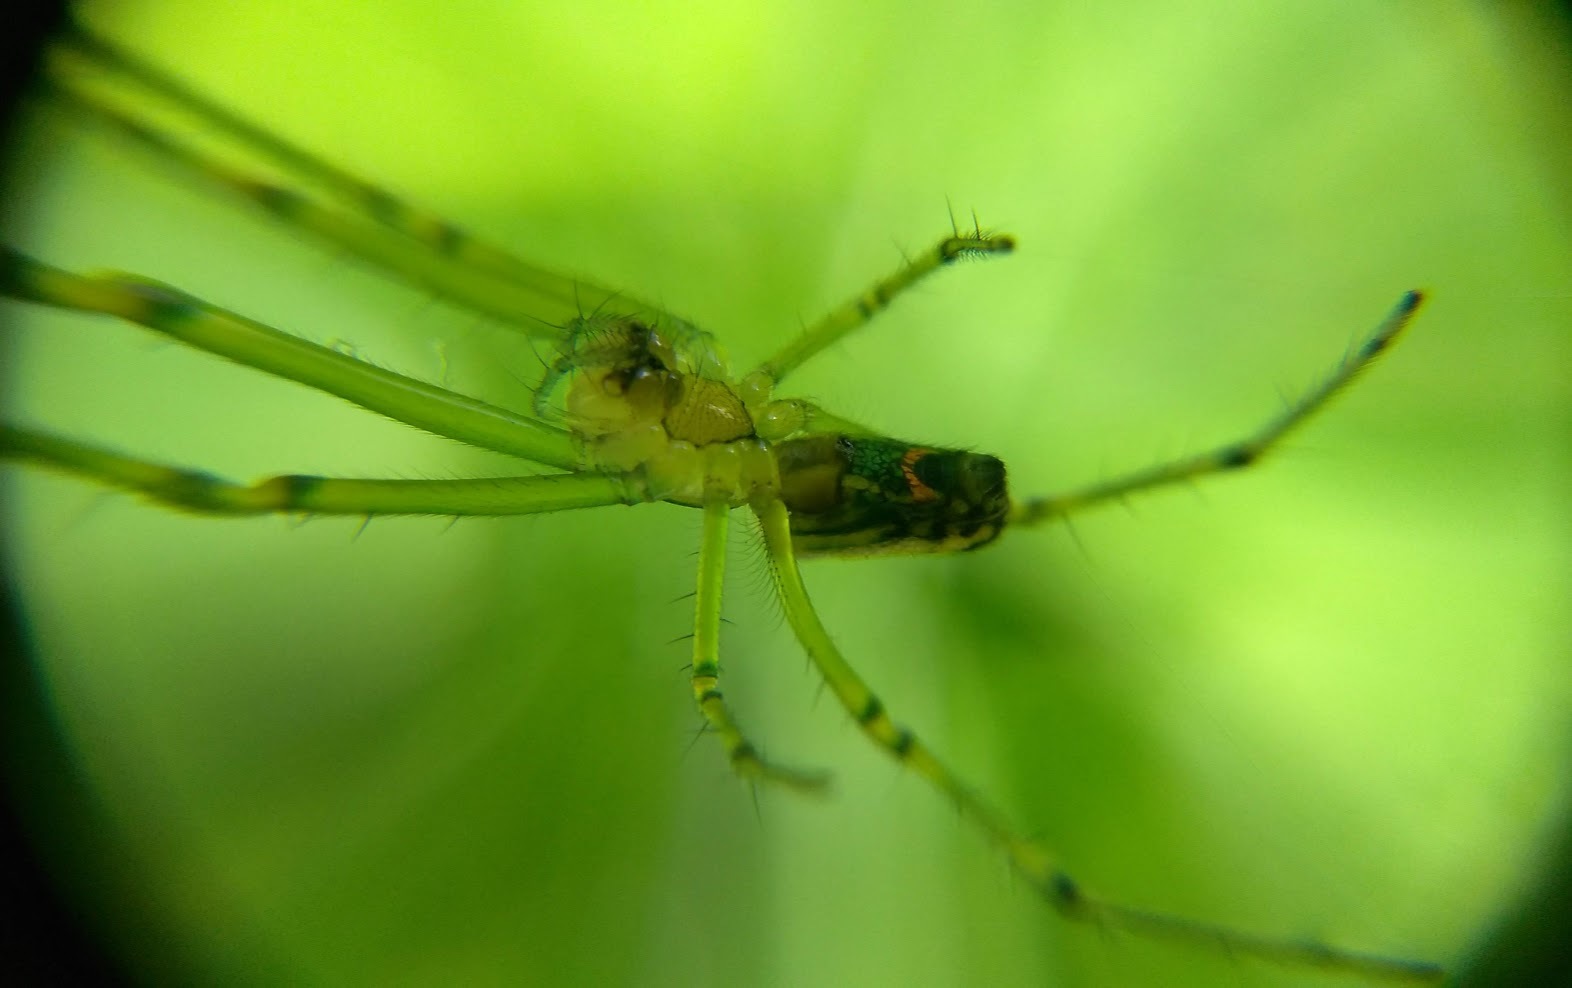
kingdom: Animalia
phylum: Arthropoda
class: Arachnida
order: Araneae
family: Tetragnathidae
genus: Leucauge
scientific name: Leucauge venusta
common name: Longjawed orb weavers
